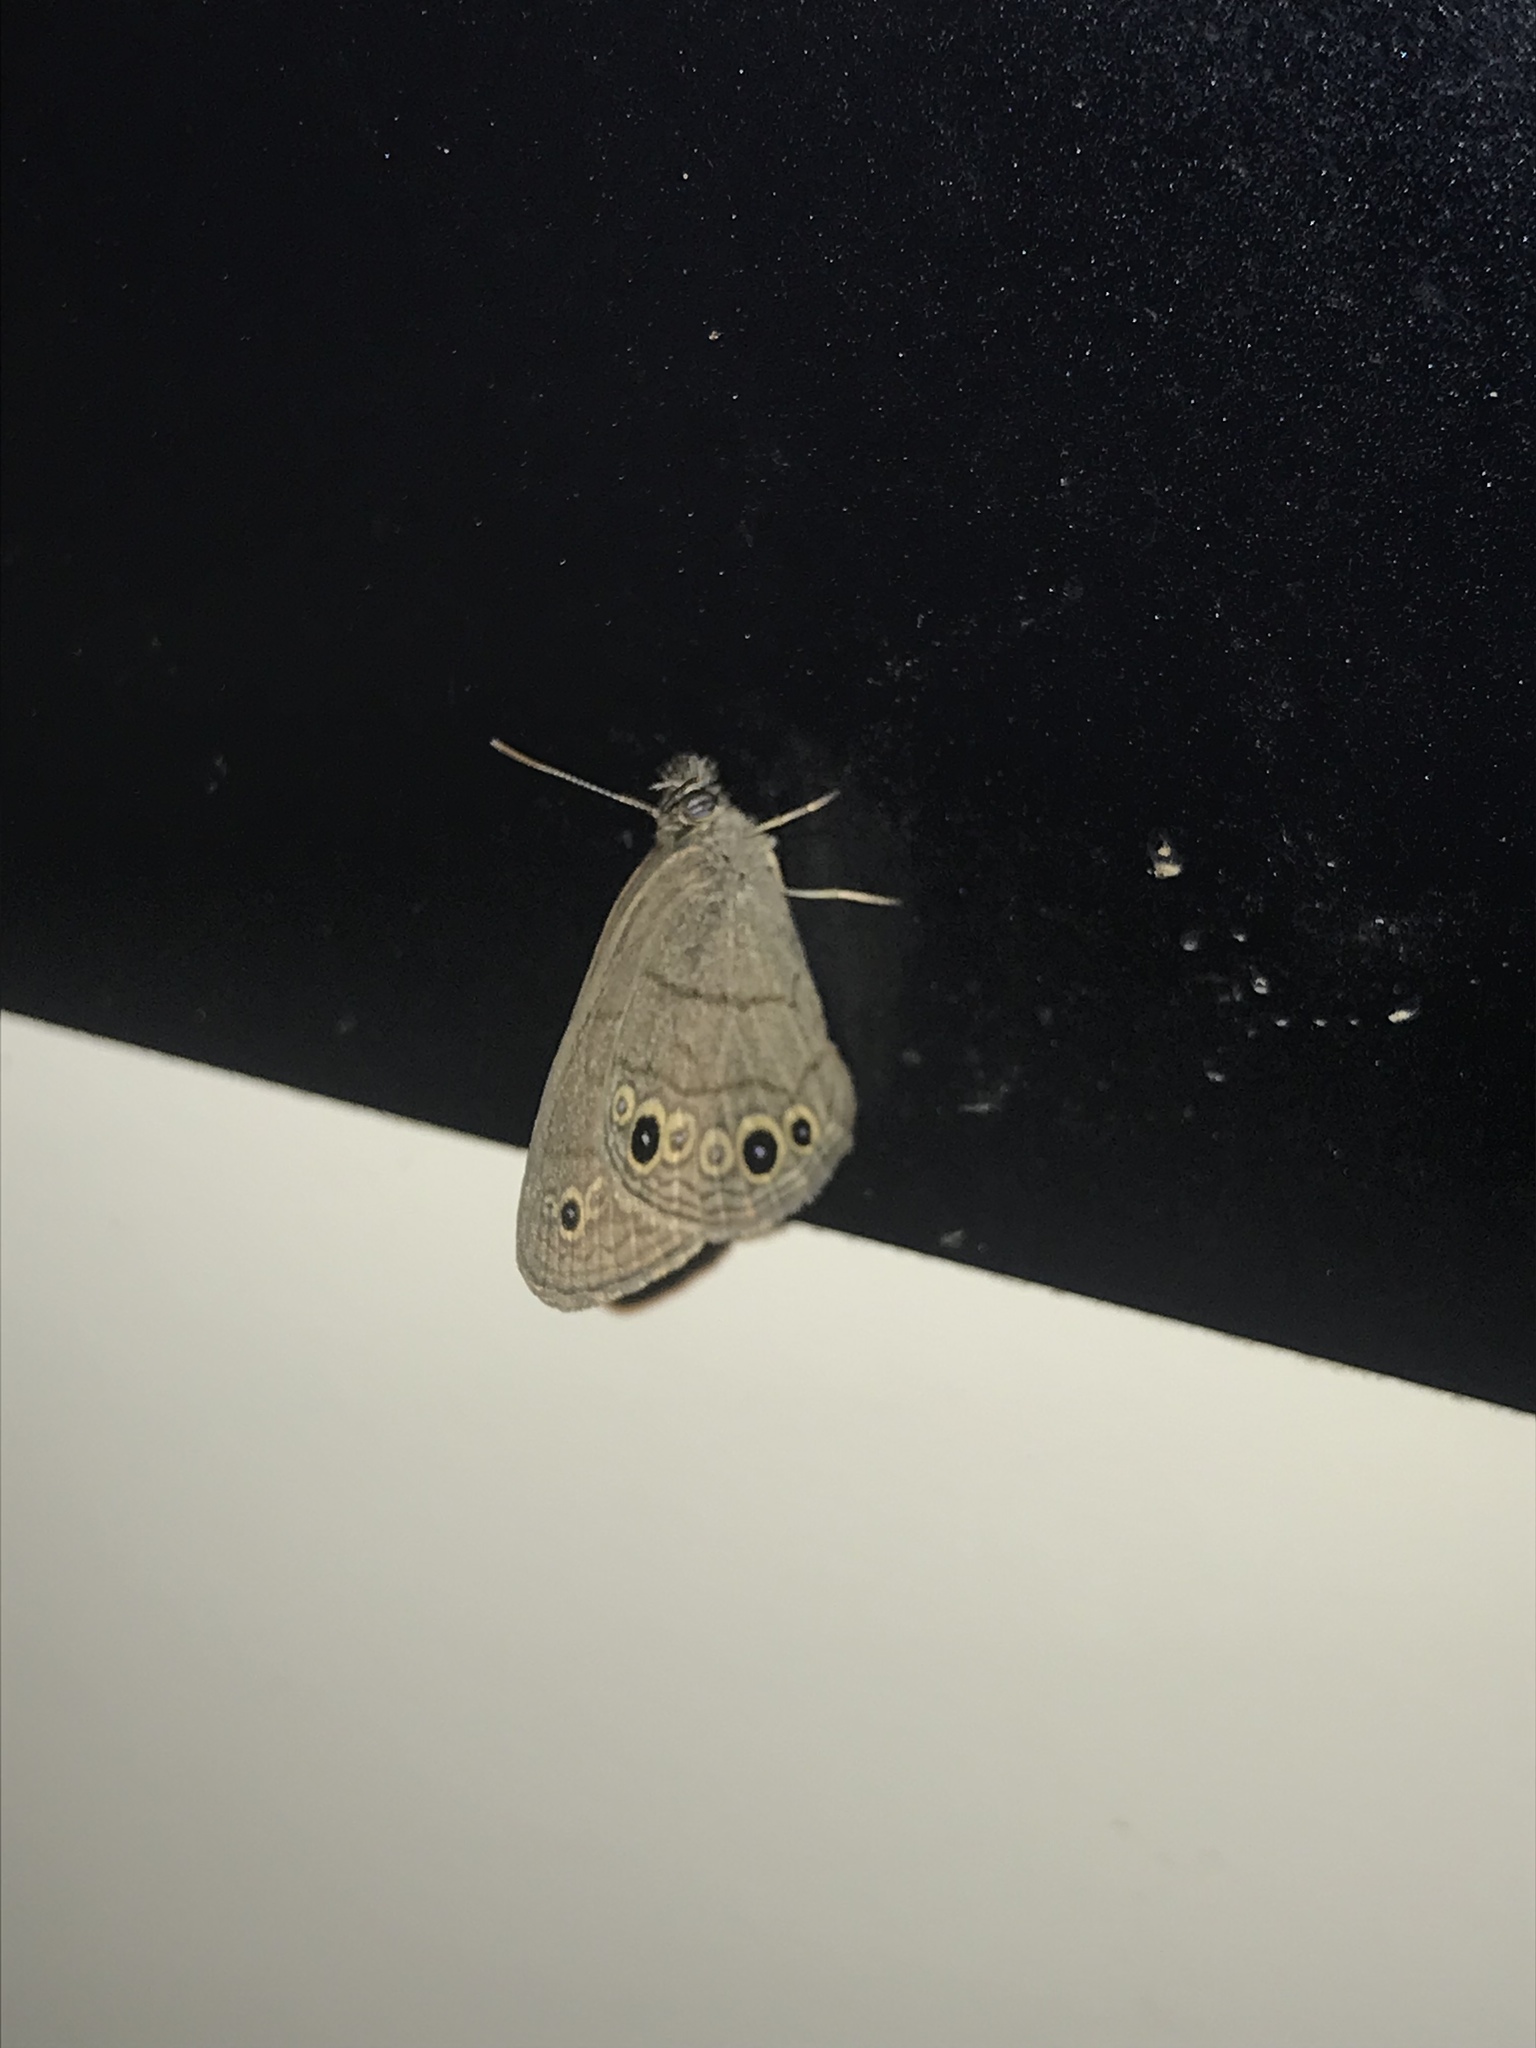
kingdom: Animalia
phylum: Arthropoda
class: Insecta
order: Lepidoptera
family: Nymphalidae
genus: Hermeuptychia
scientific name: Hermeuptychia hermes
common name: Hermes satyr
